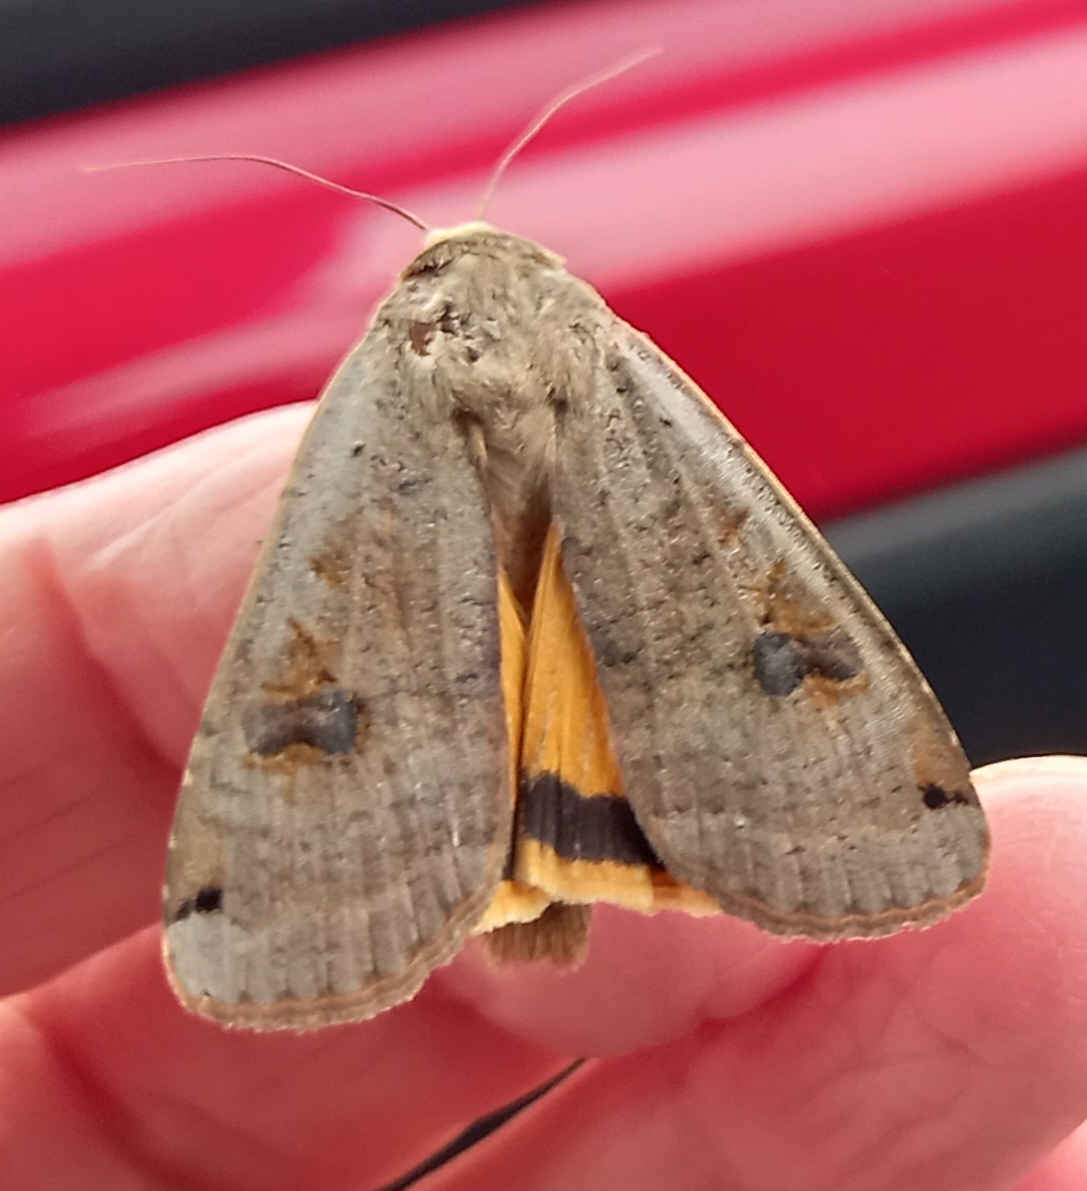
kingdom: Animalia
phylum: Arthropoda
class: Insecta
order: Lepidoptera
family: Noctuidae
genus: Noctua
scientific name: Noctua pronuba
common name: Large yellow underwing
